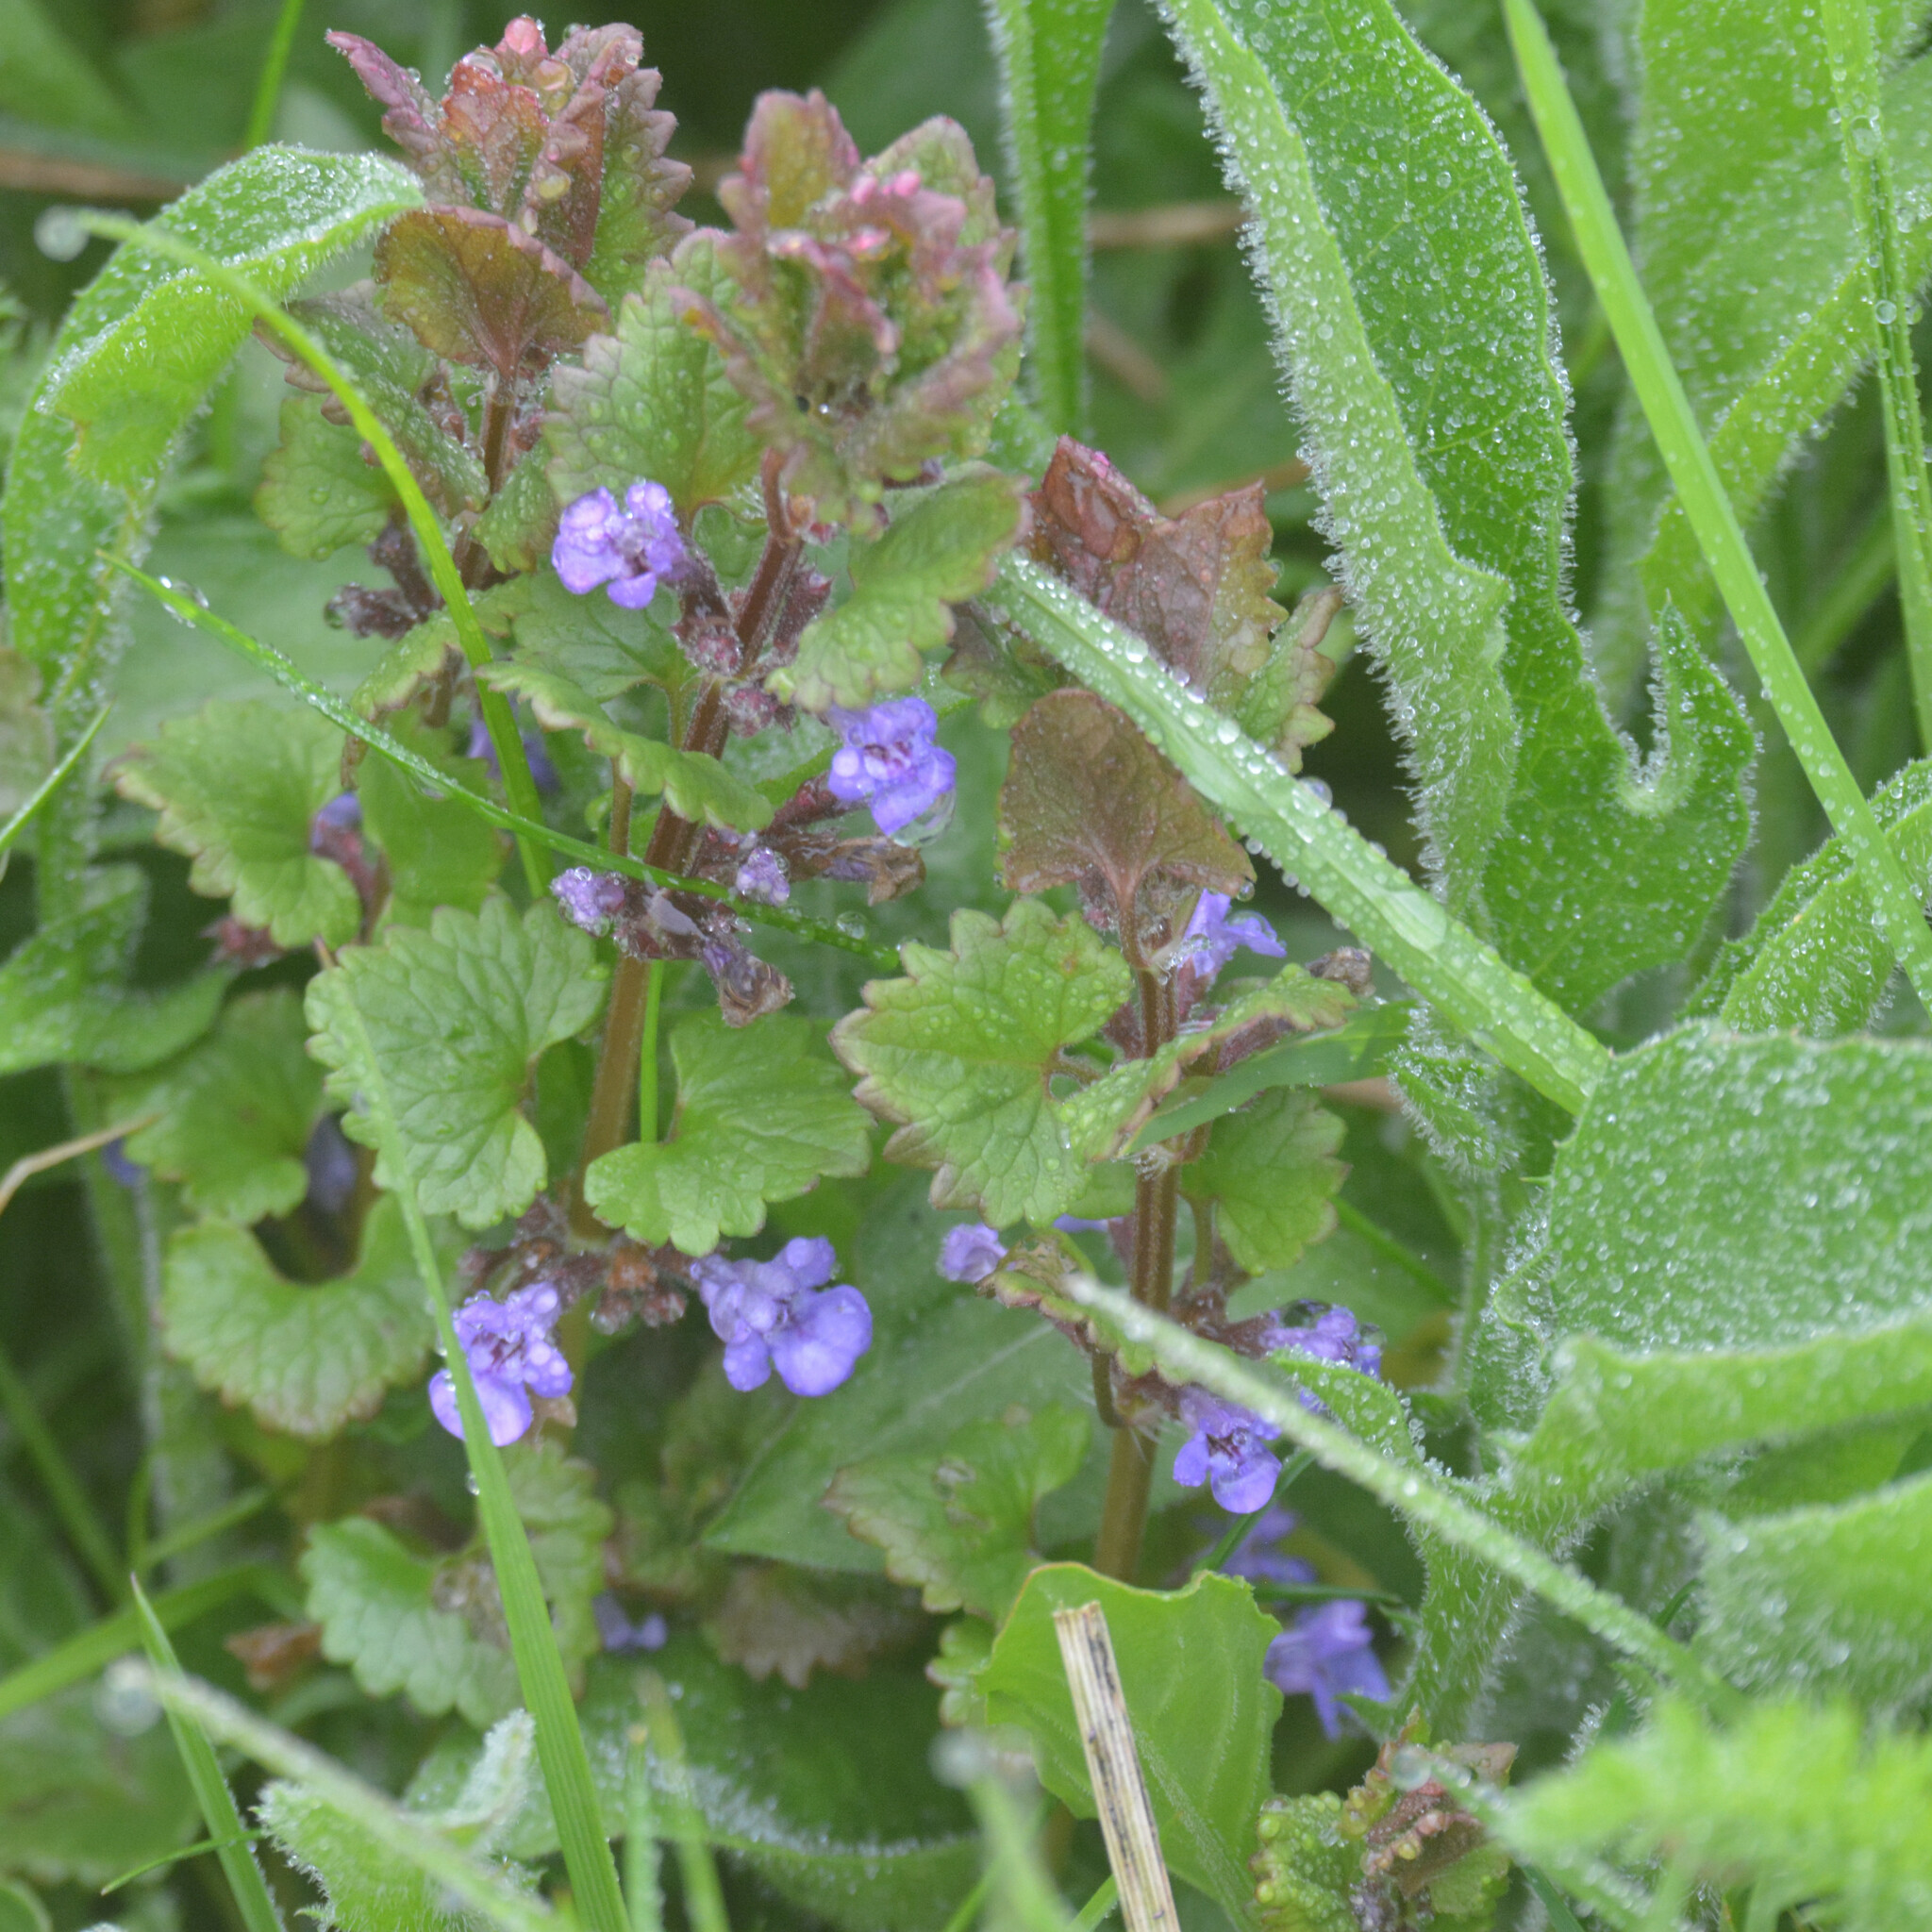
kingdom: Plantae
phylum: Tracheophyta
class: Magnoliopsida
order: Lamiales
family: Lamiaceae
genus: Glechoma
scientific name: Glechoma hederacea
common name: Ground ivy
